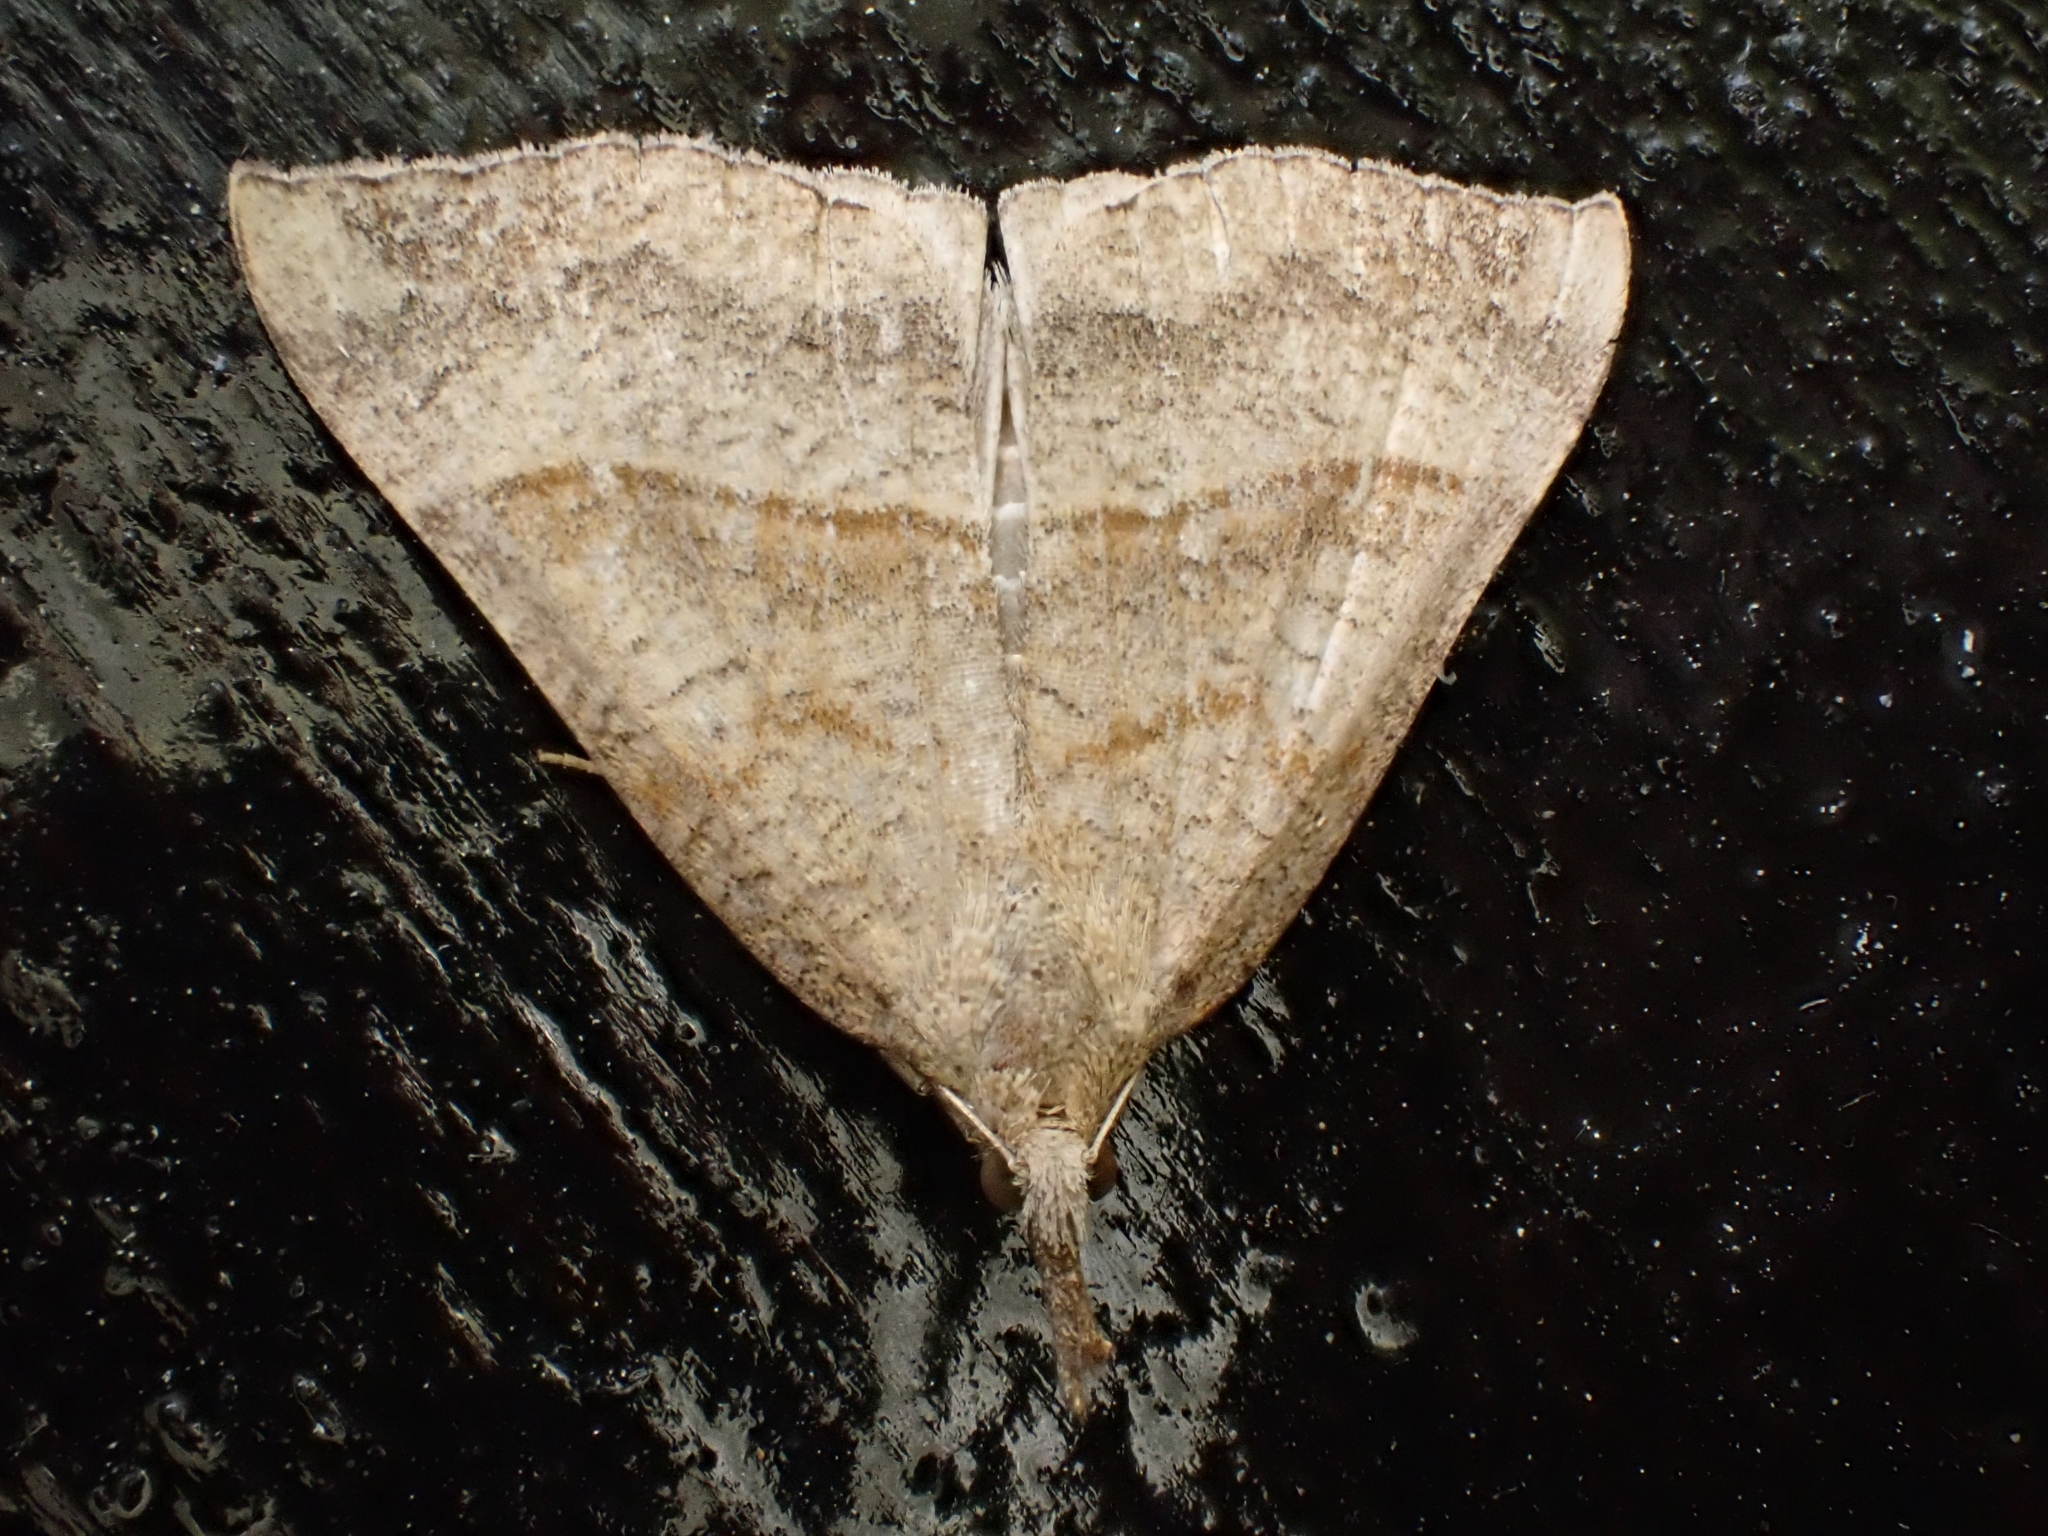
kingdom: Animalia
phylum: Arthropoda
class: Insecta
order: Lepidoptera
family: Erebidae
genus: Hypena
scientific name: Hypena proboscidalis
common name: Snout
